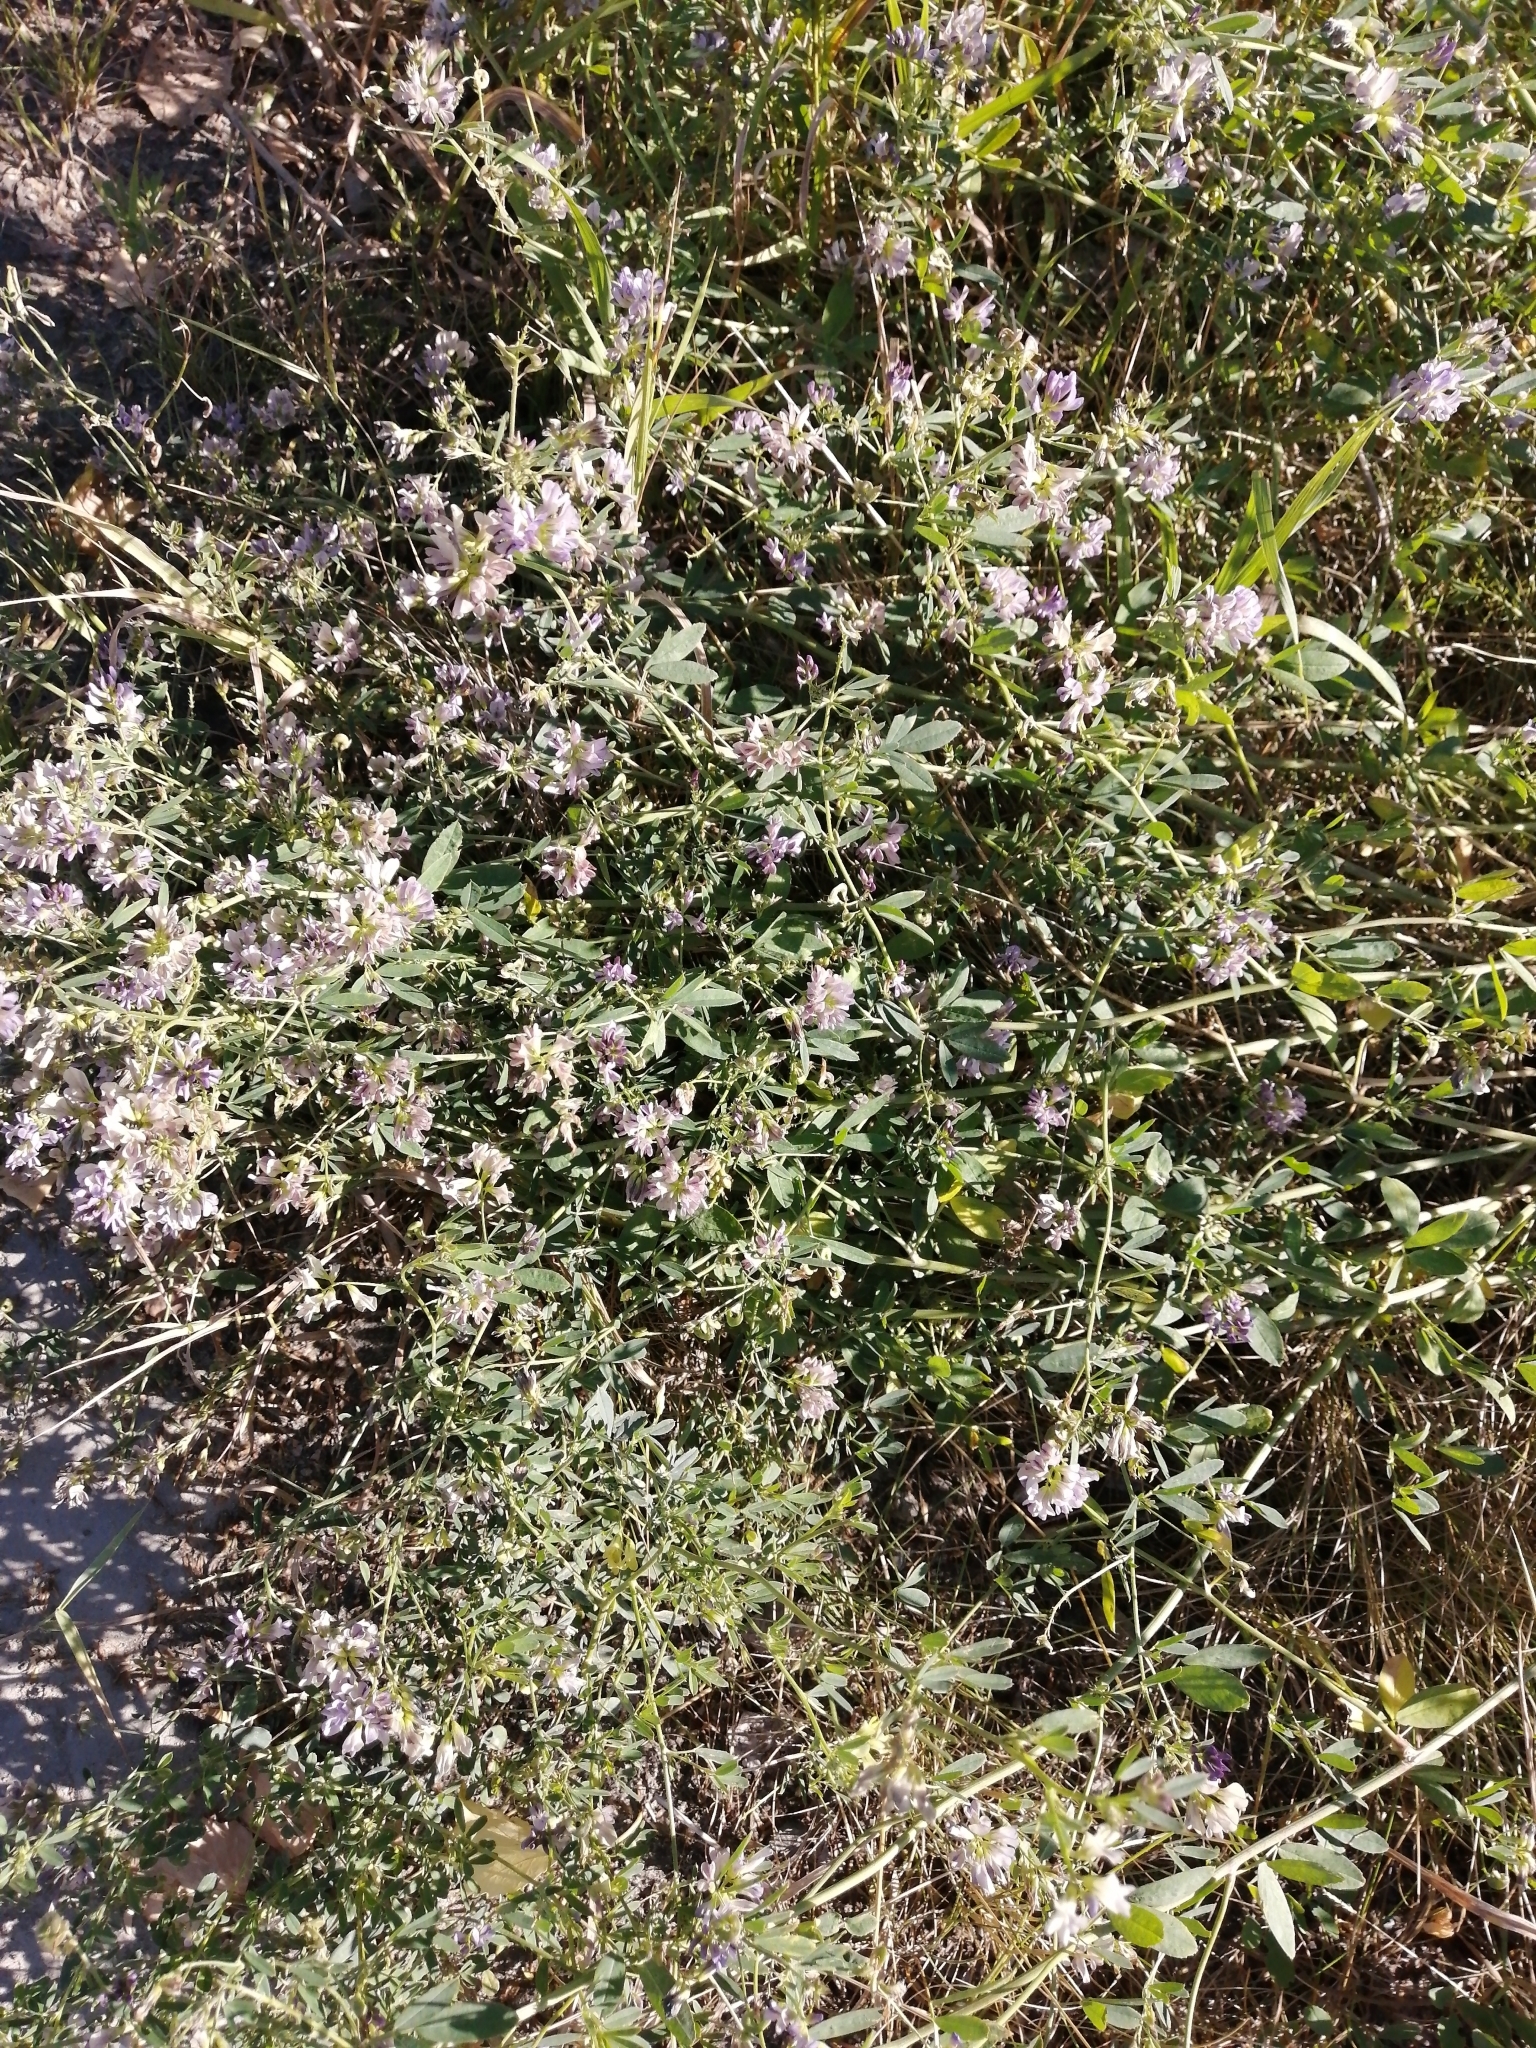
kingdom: Plantae
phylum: Tracheophyta
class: Magnoliopsida
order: Fabales
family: Fabaceae
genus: Medicago
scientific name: Medicago varia
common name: Sand lucerne
